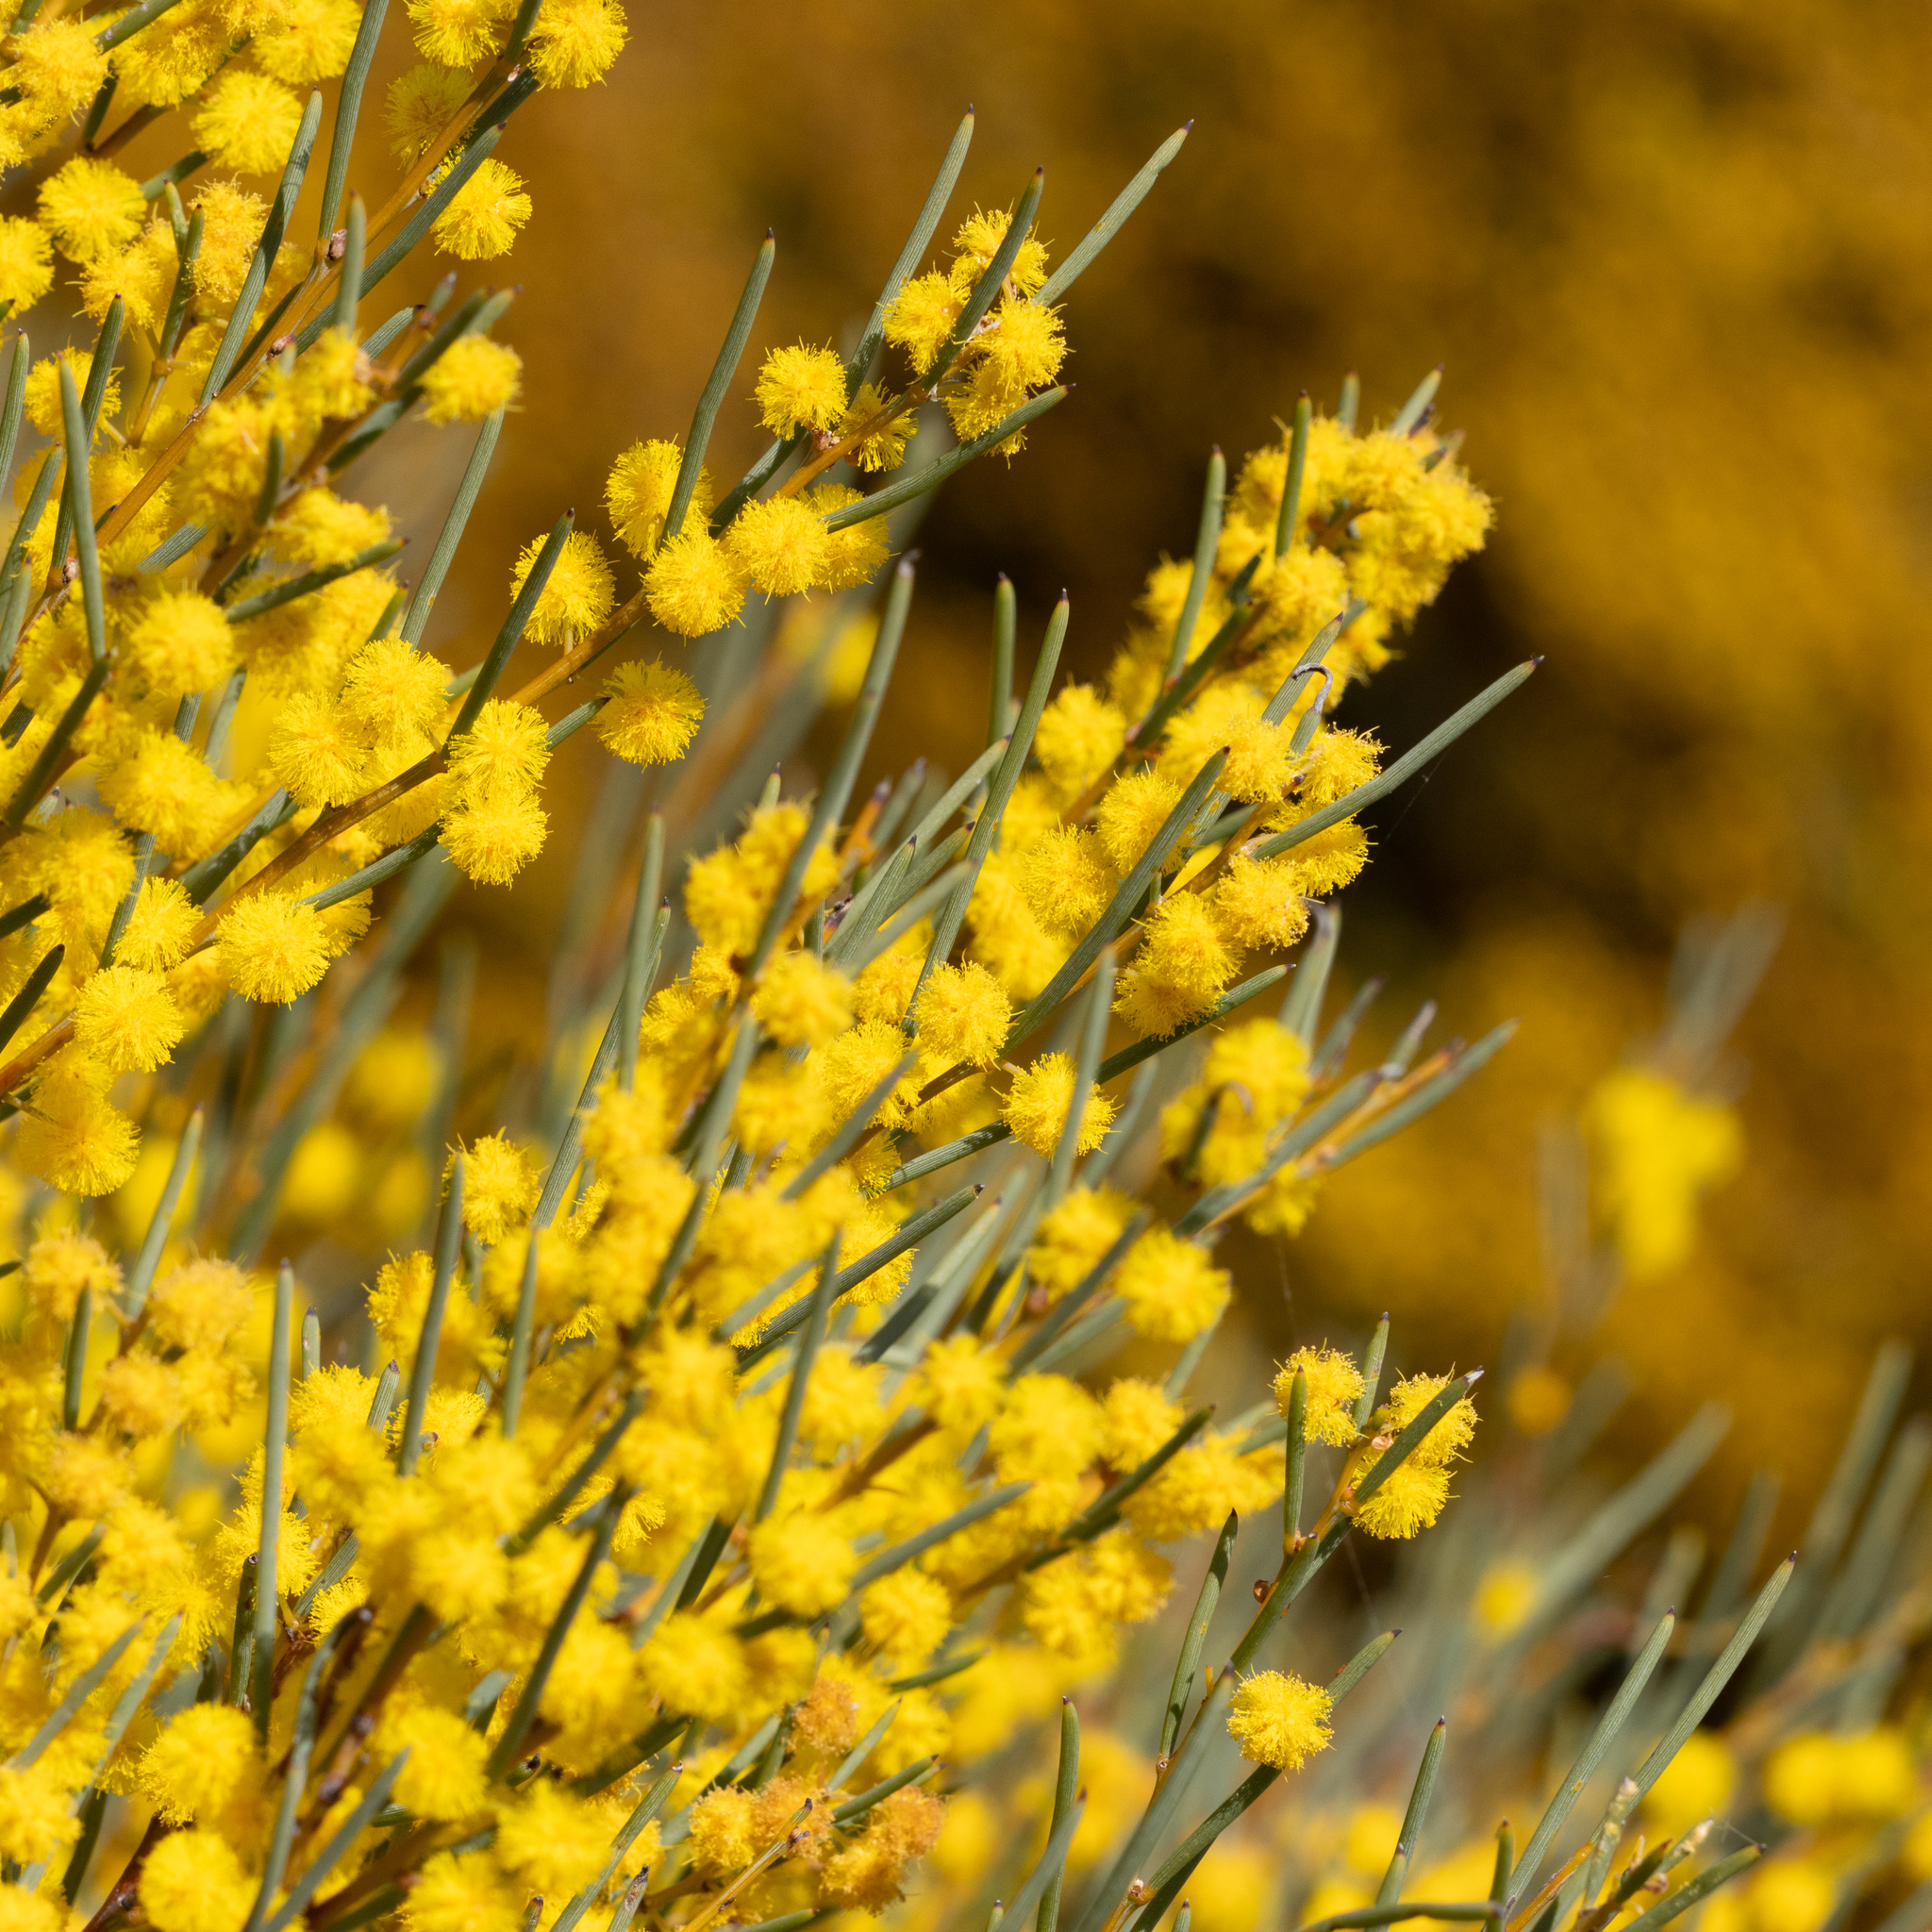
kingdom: Plantae
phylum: Tracheophyta
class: Magnoliopsida
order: Fabales
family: Fabaceae
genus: Acacia
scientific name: Acacia rigens
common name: Nealie
